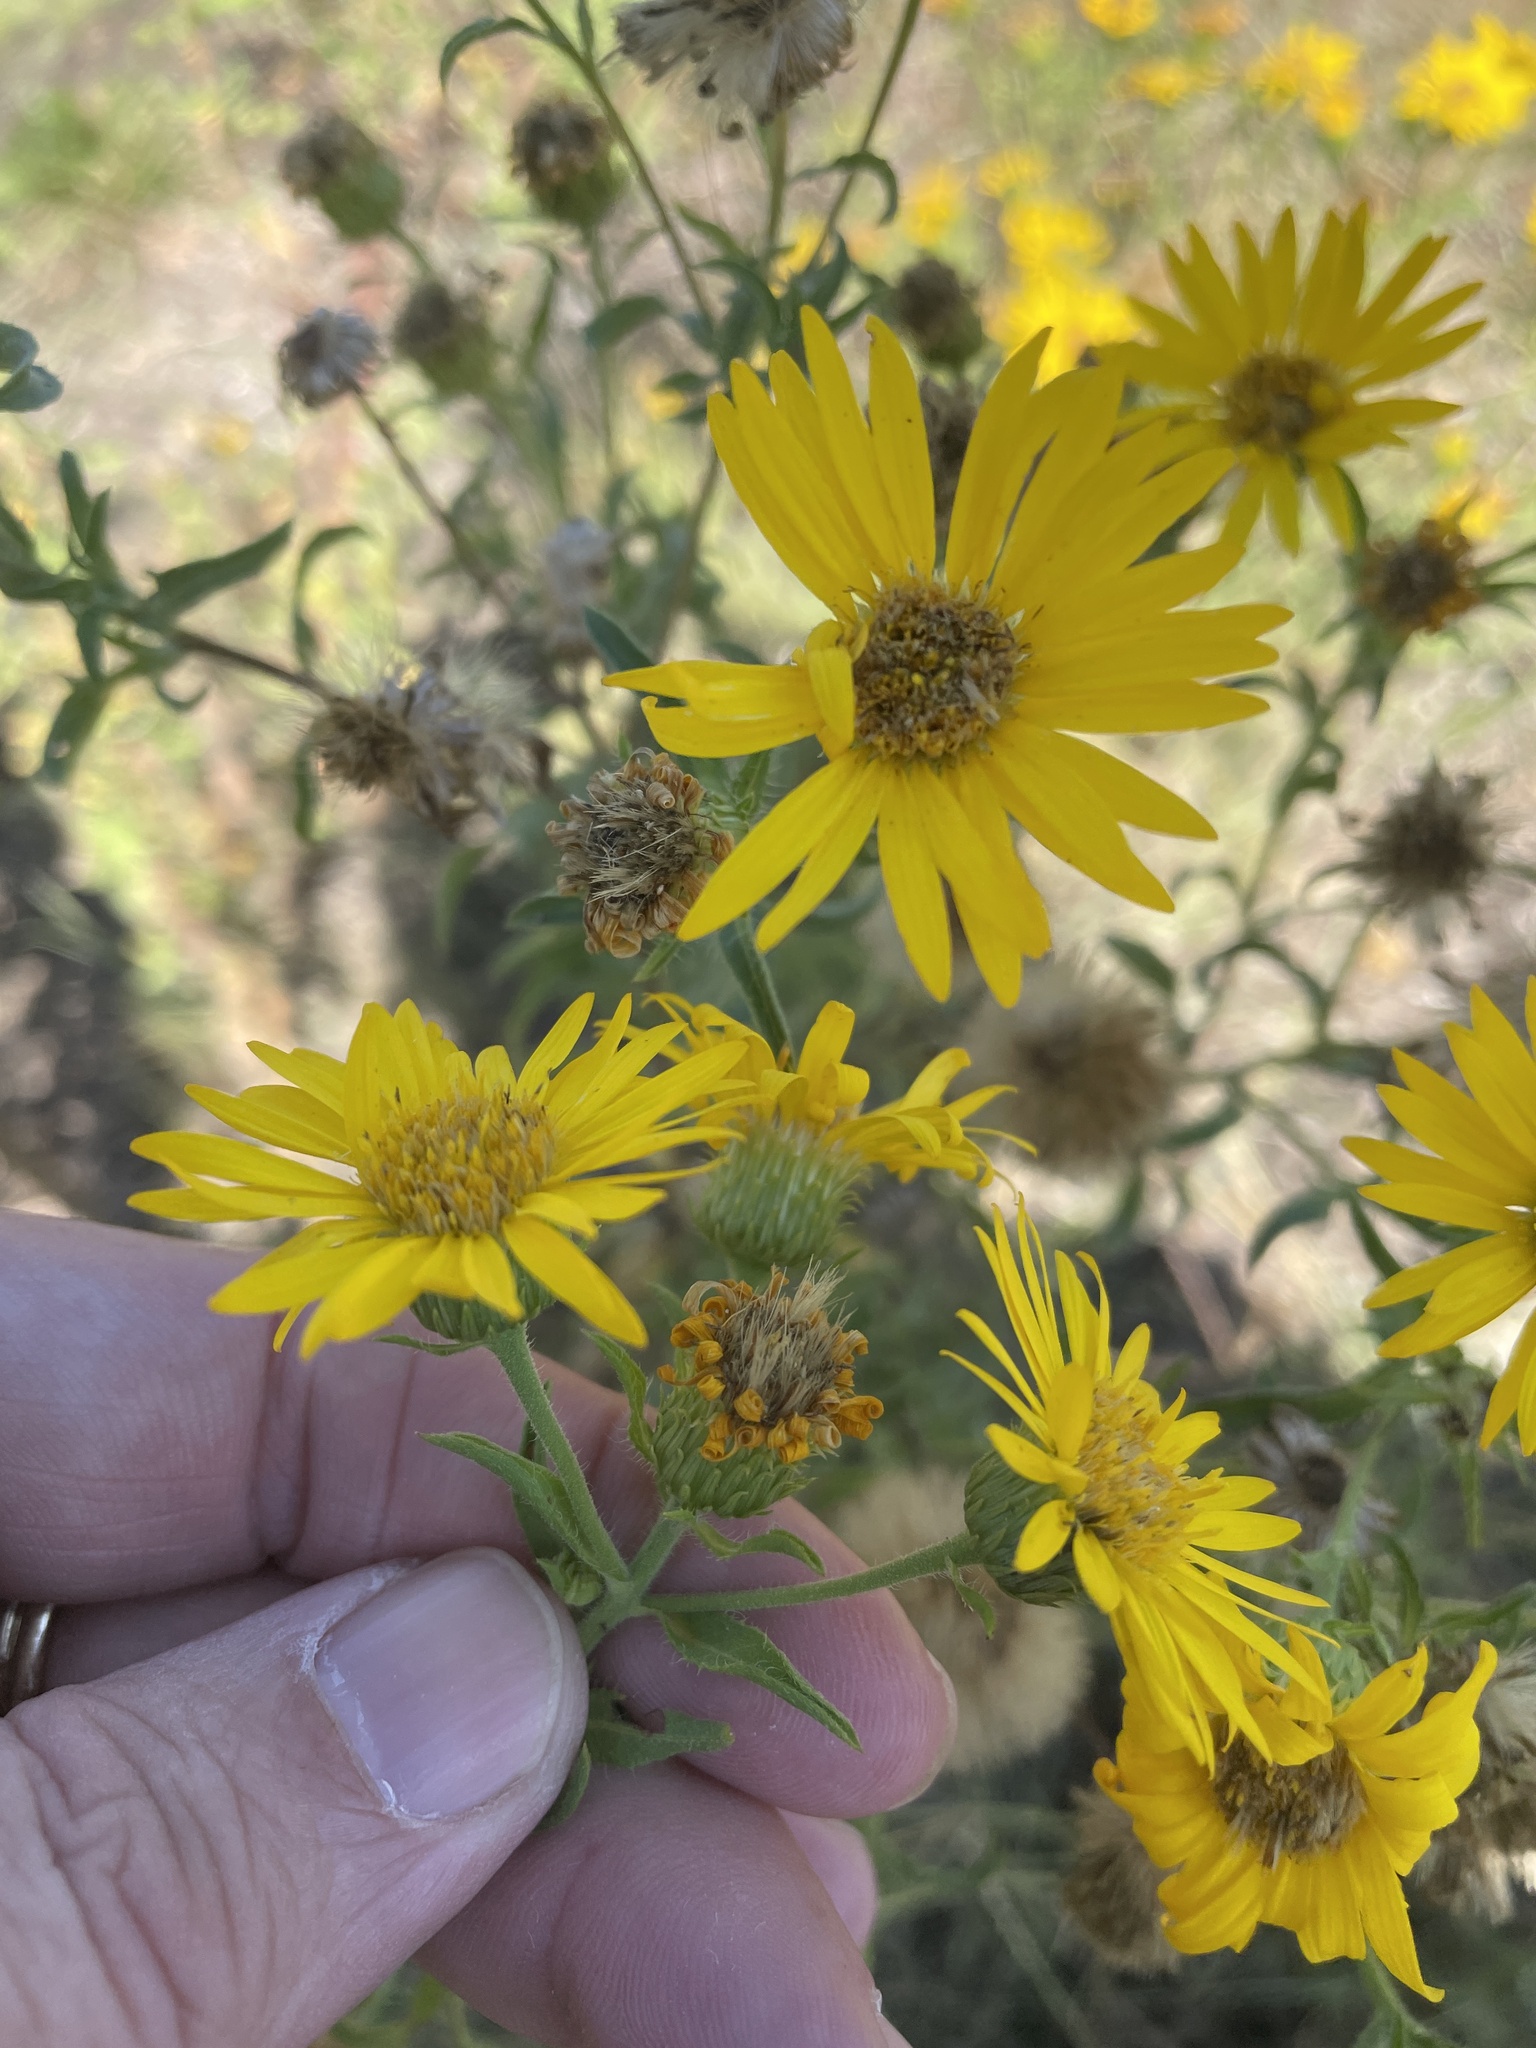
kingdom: Plantae
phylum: Tracheophyta
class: Magnoliopsida
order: Asterales
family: Asteraceae
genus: Heterotheca
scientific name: Heterotheca camporum
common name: Prairie golden-aster
